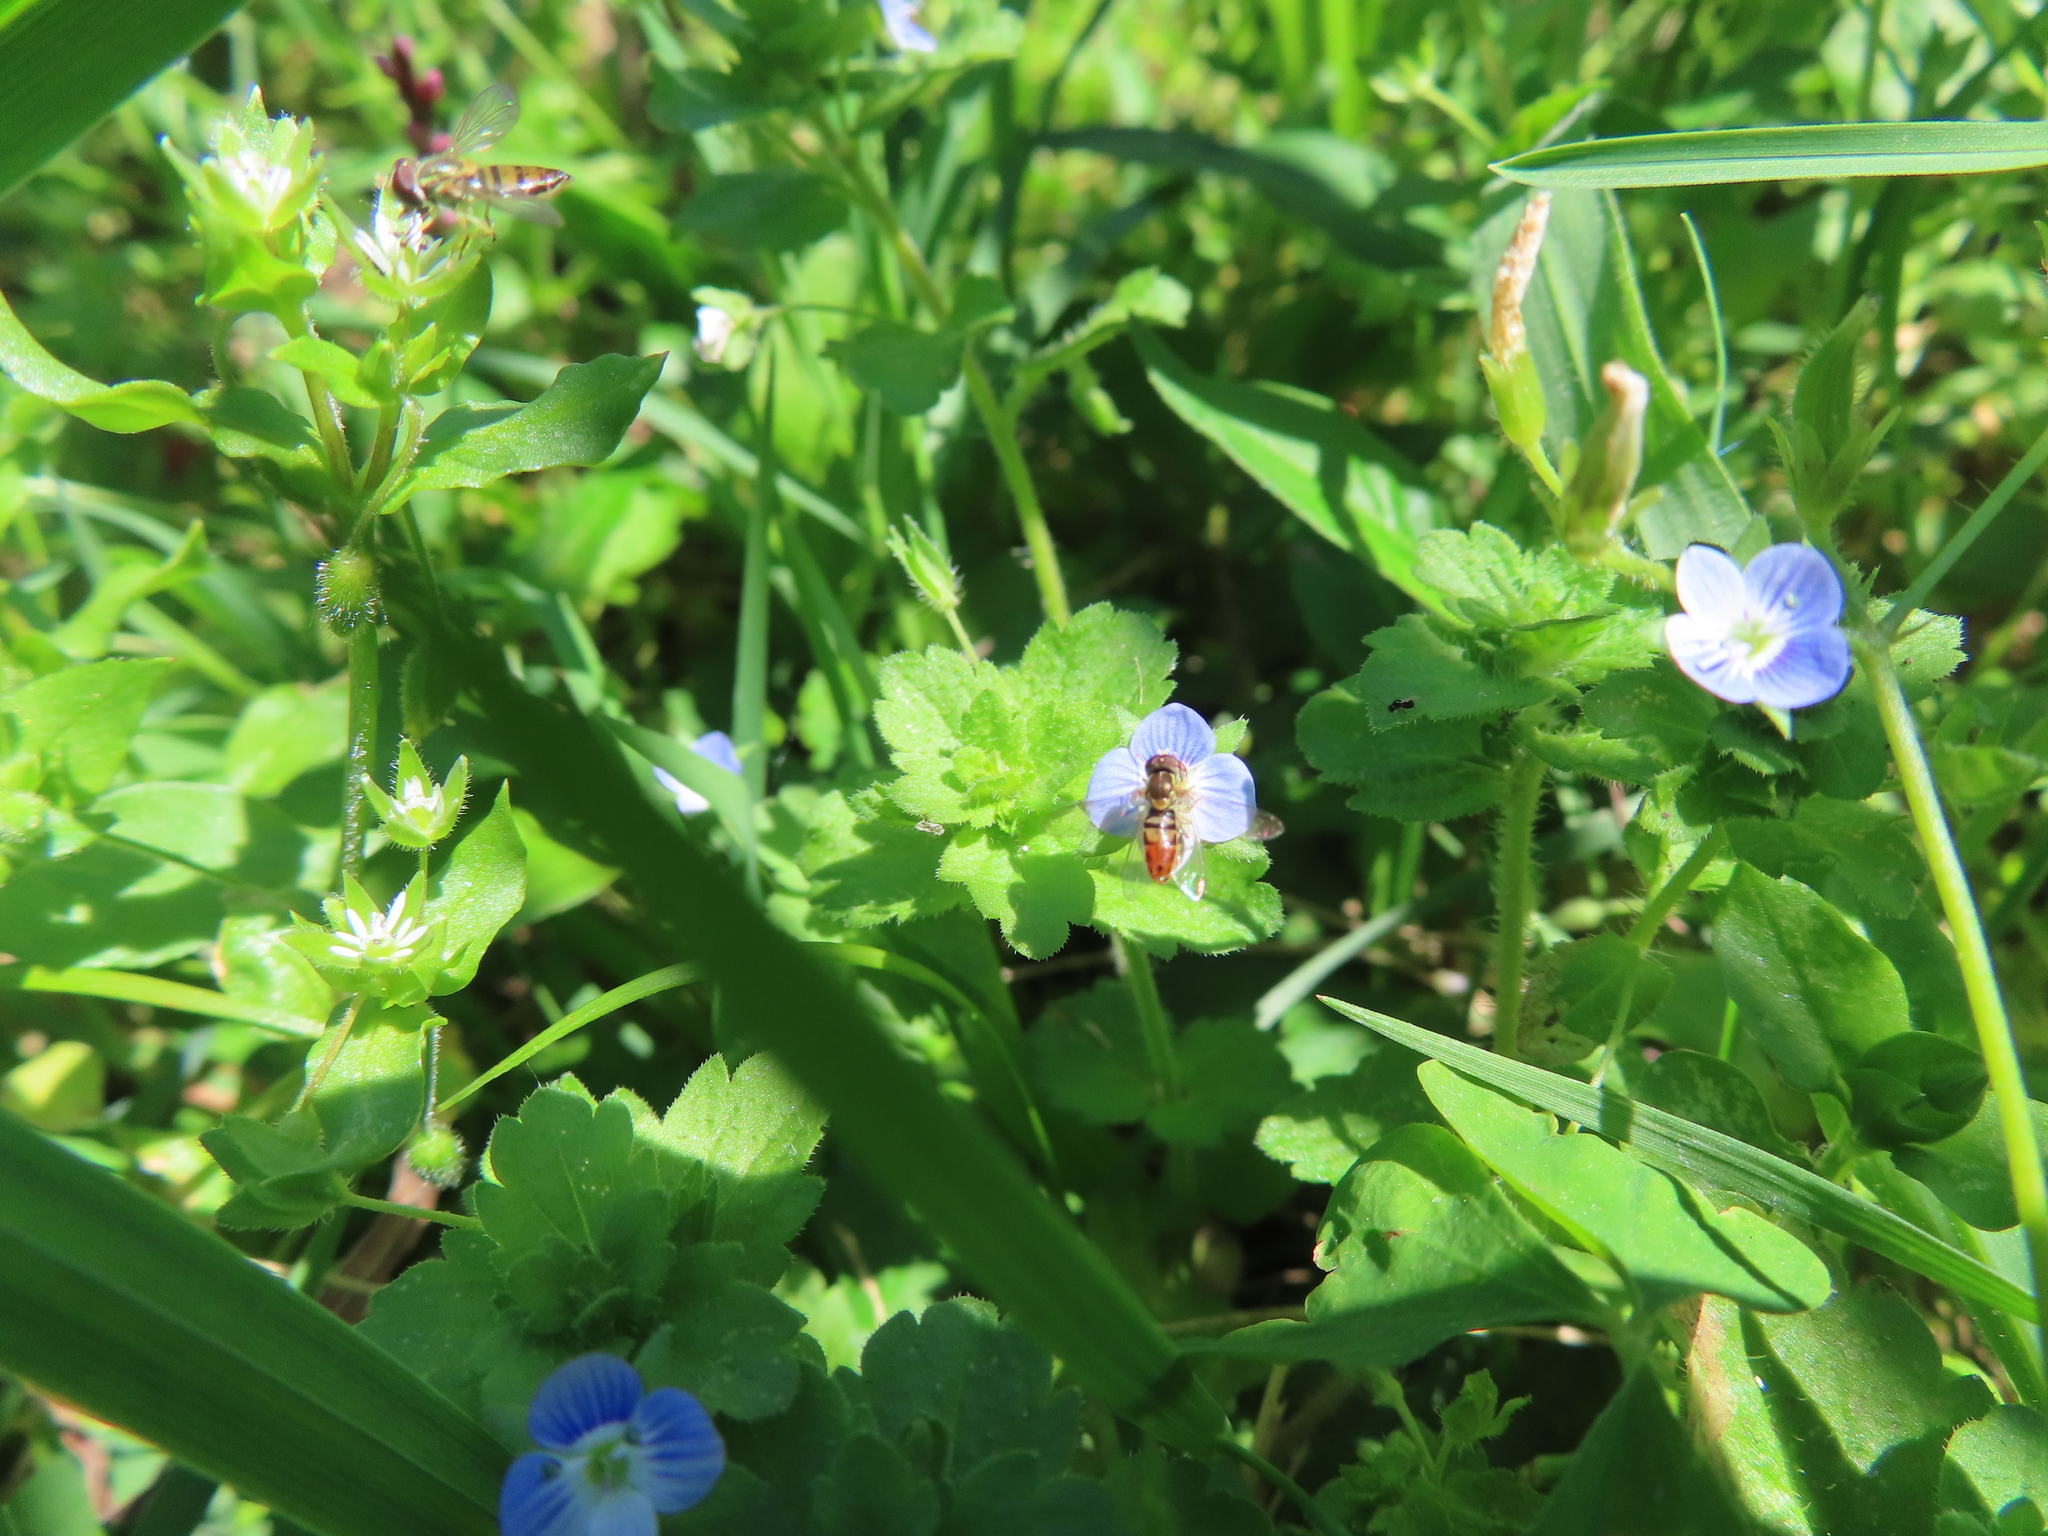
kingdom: Animalia
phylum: Arthropoda
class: Insecta
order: Diptera
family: Syrphidae
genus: Toxomerus
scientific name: Toxomerus marginatus
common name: Syrphid fly
